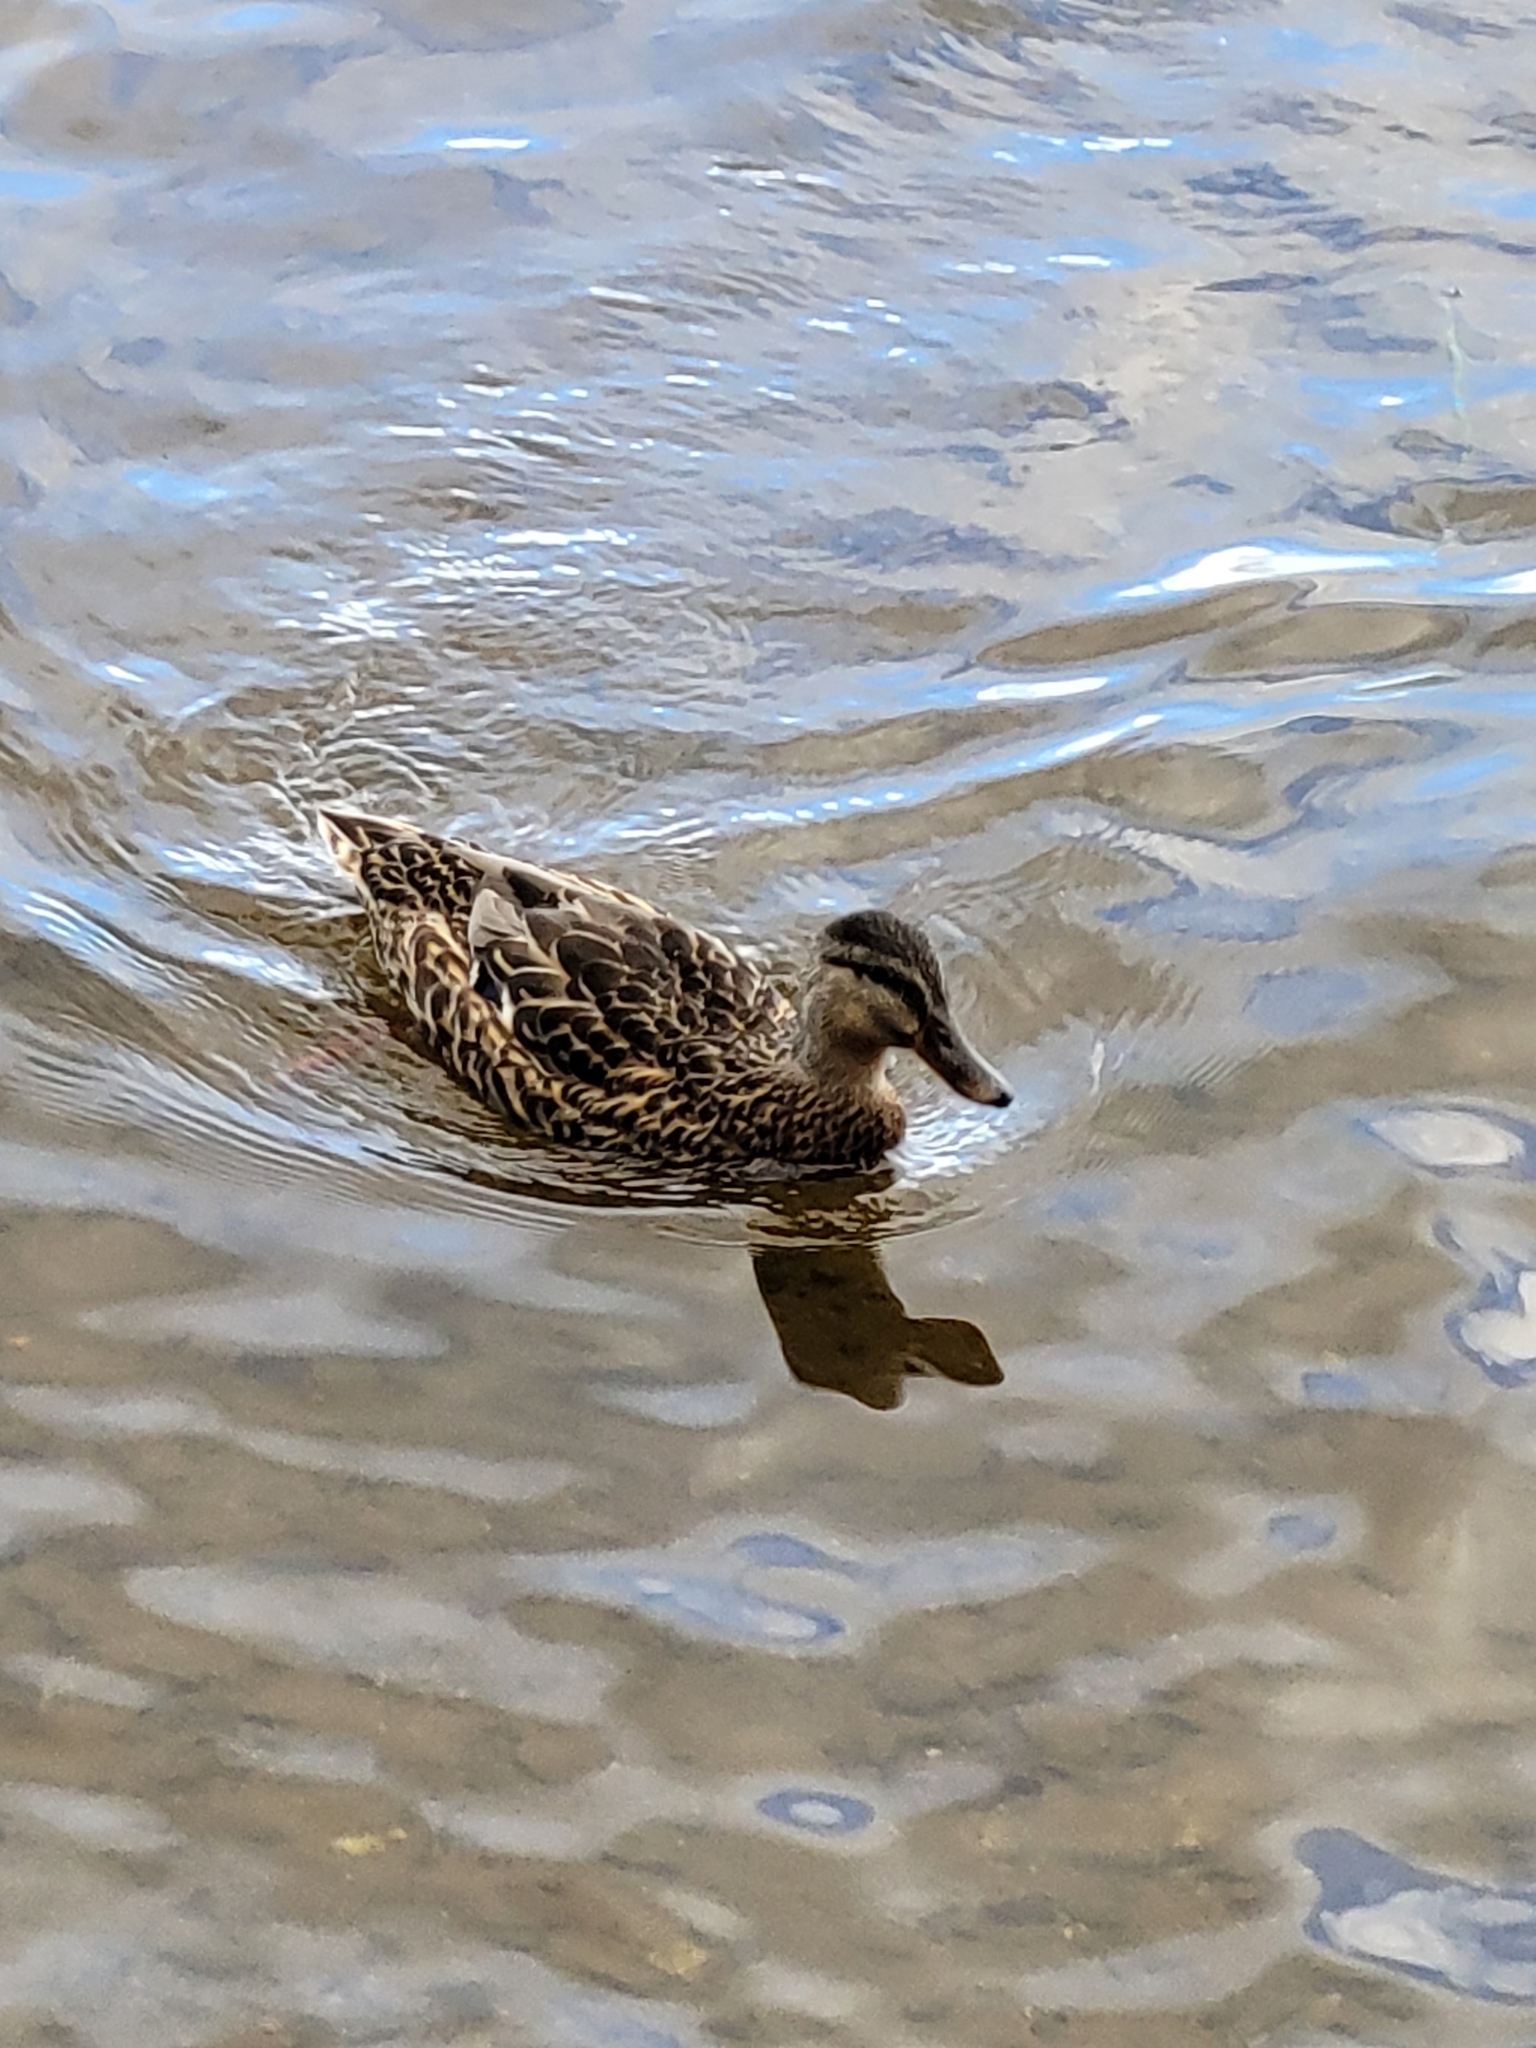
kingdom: Animalia
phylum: Chordata
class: Aves
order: Anseriformes
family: Anatidae
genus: Anas
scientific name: Anas platyrhynchos
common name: Mallard
